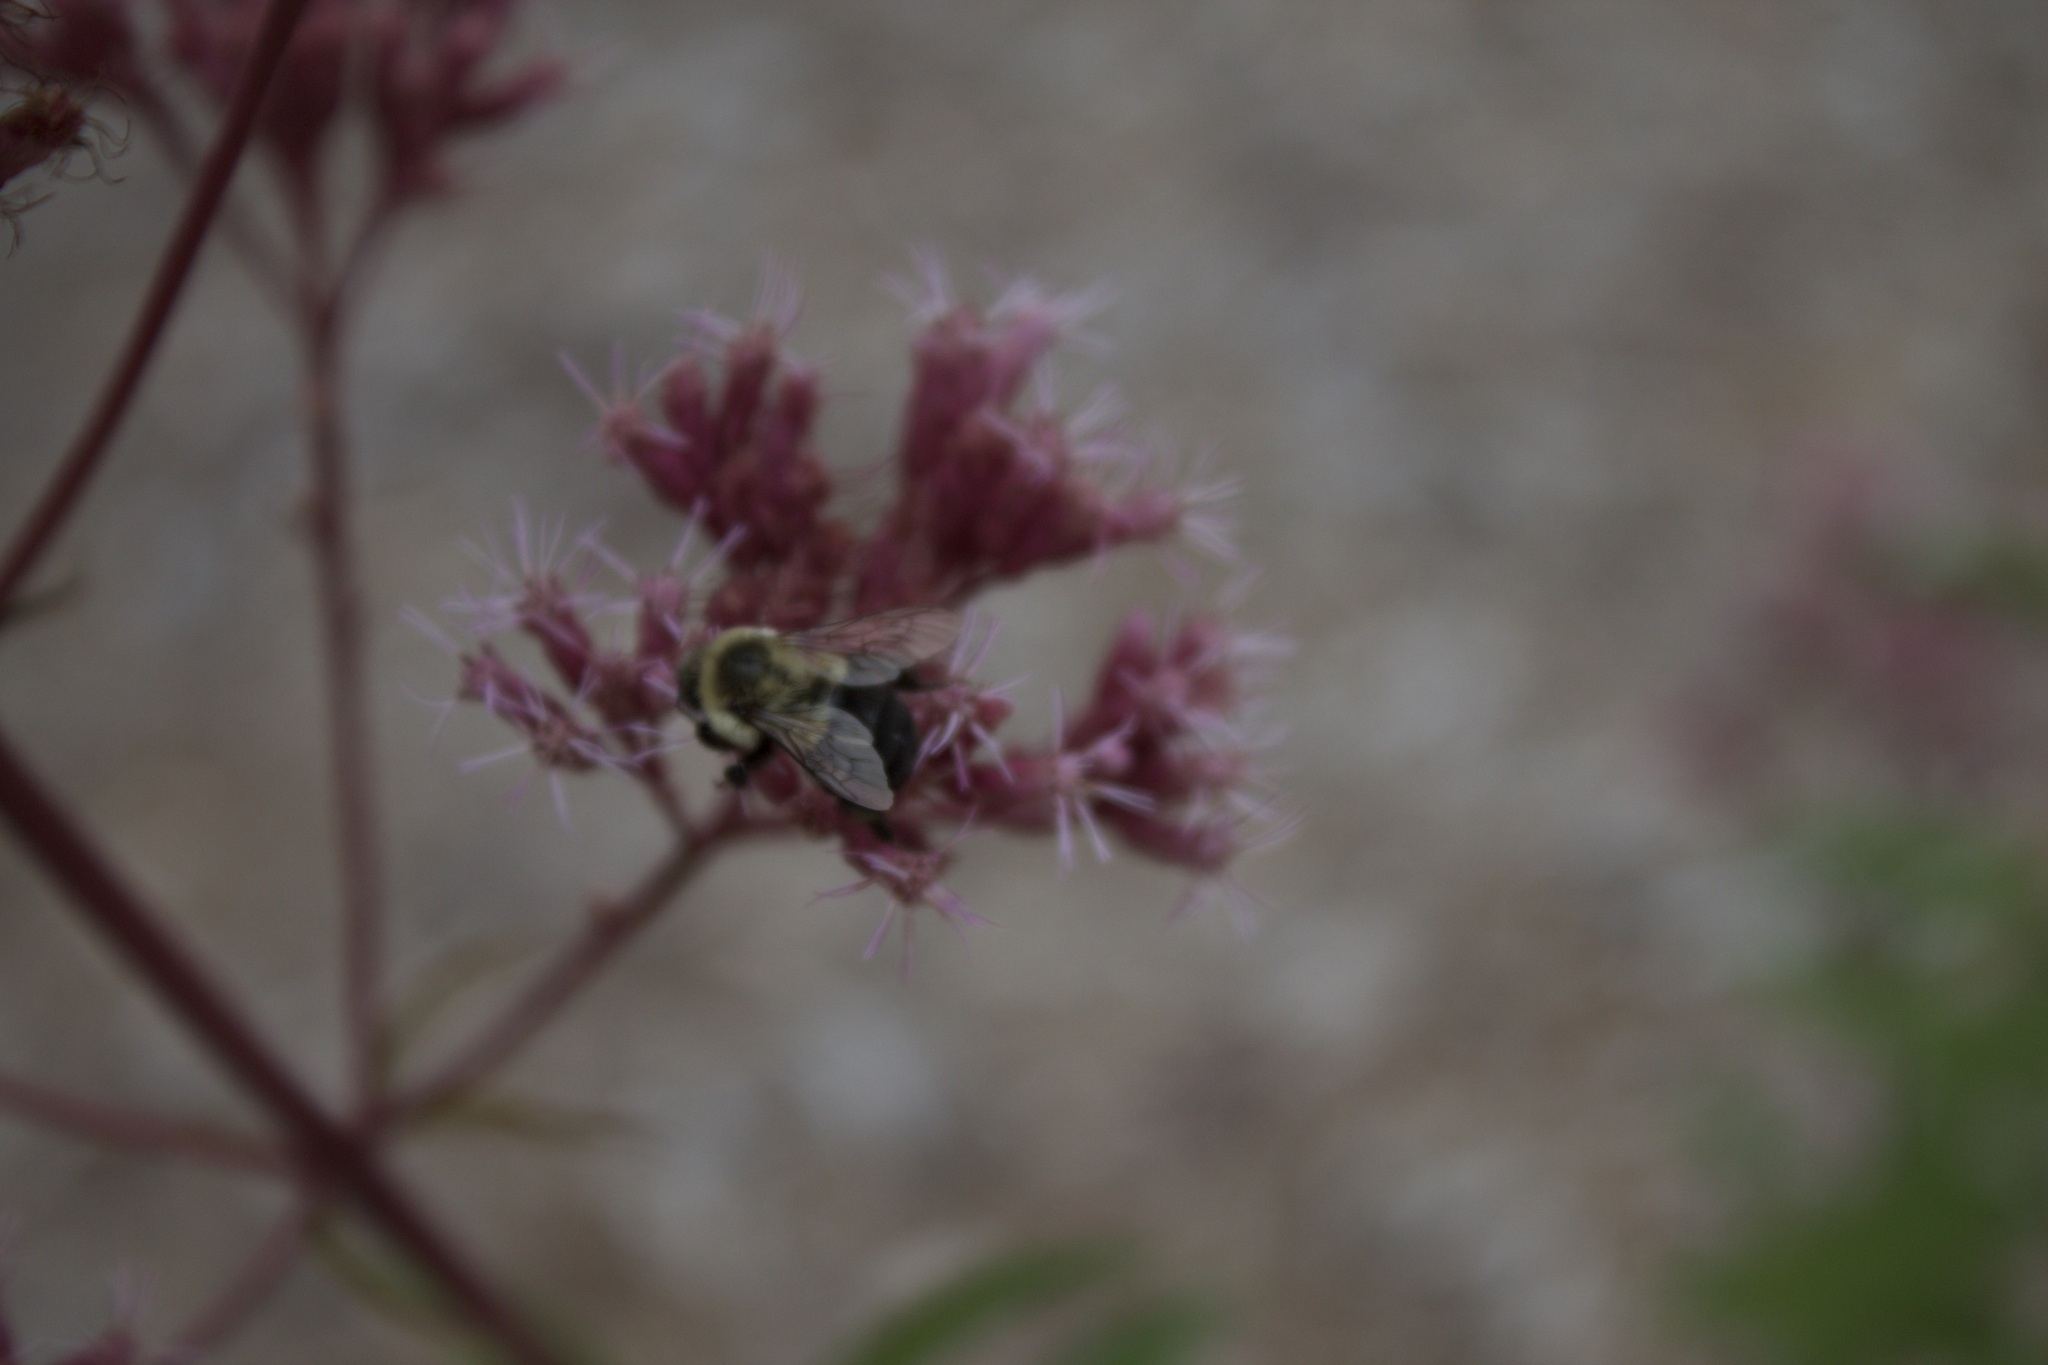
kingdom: Animalia
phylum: Arthropoda
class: Insecta
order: Hymenoptera
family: Apidae
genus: Bombus
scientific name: Bombus impatiens
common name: Common eastern bumble bee
